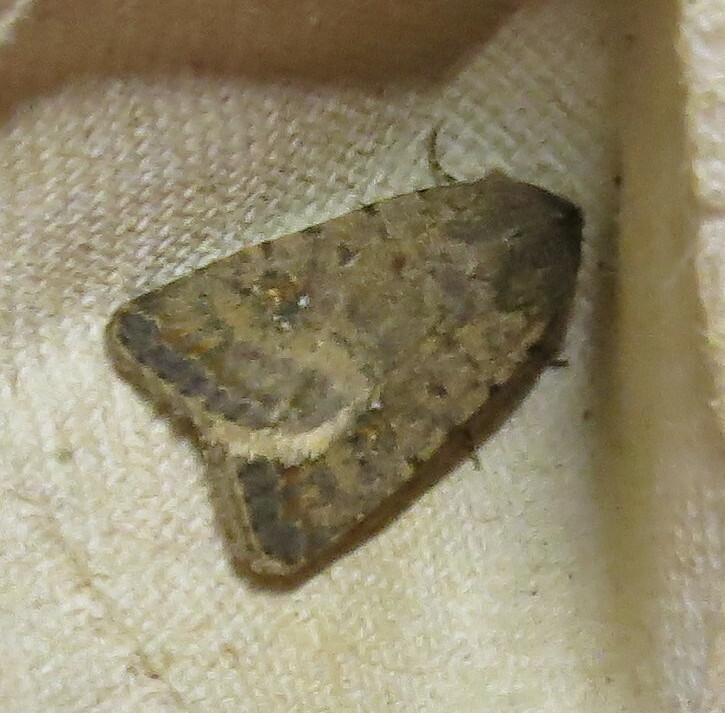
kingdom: Animalia
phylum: Arthropoda
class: Insecta
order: Lepidoptera
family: Noctuidae
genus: Caradrina
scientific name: Caradrina clavipalpis
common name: Pale mottled willow
